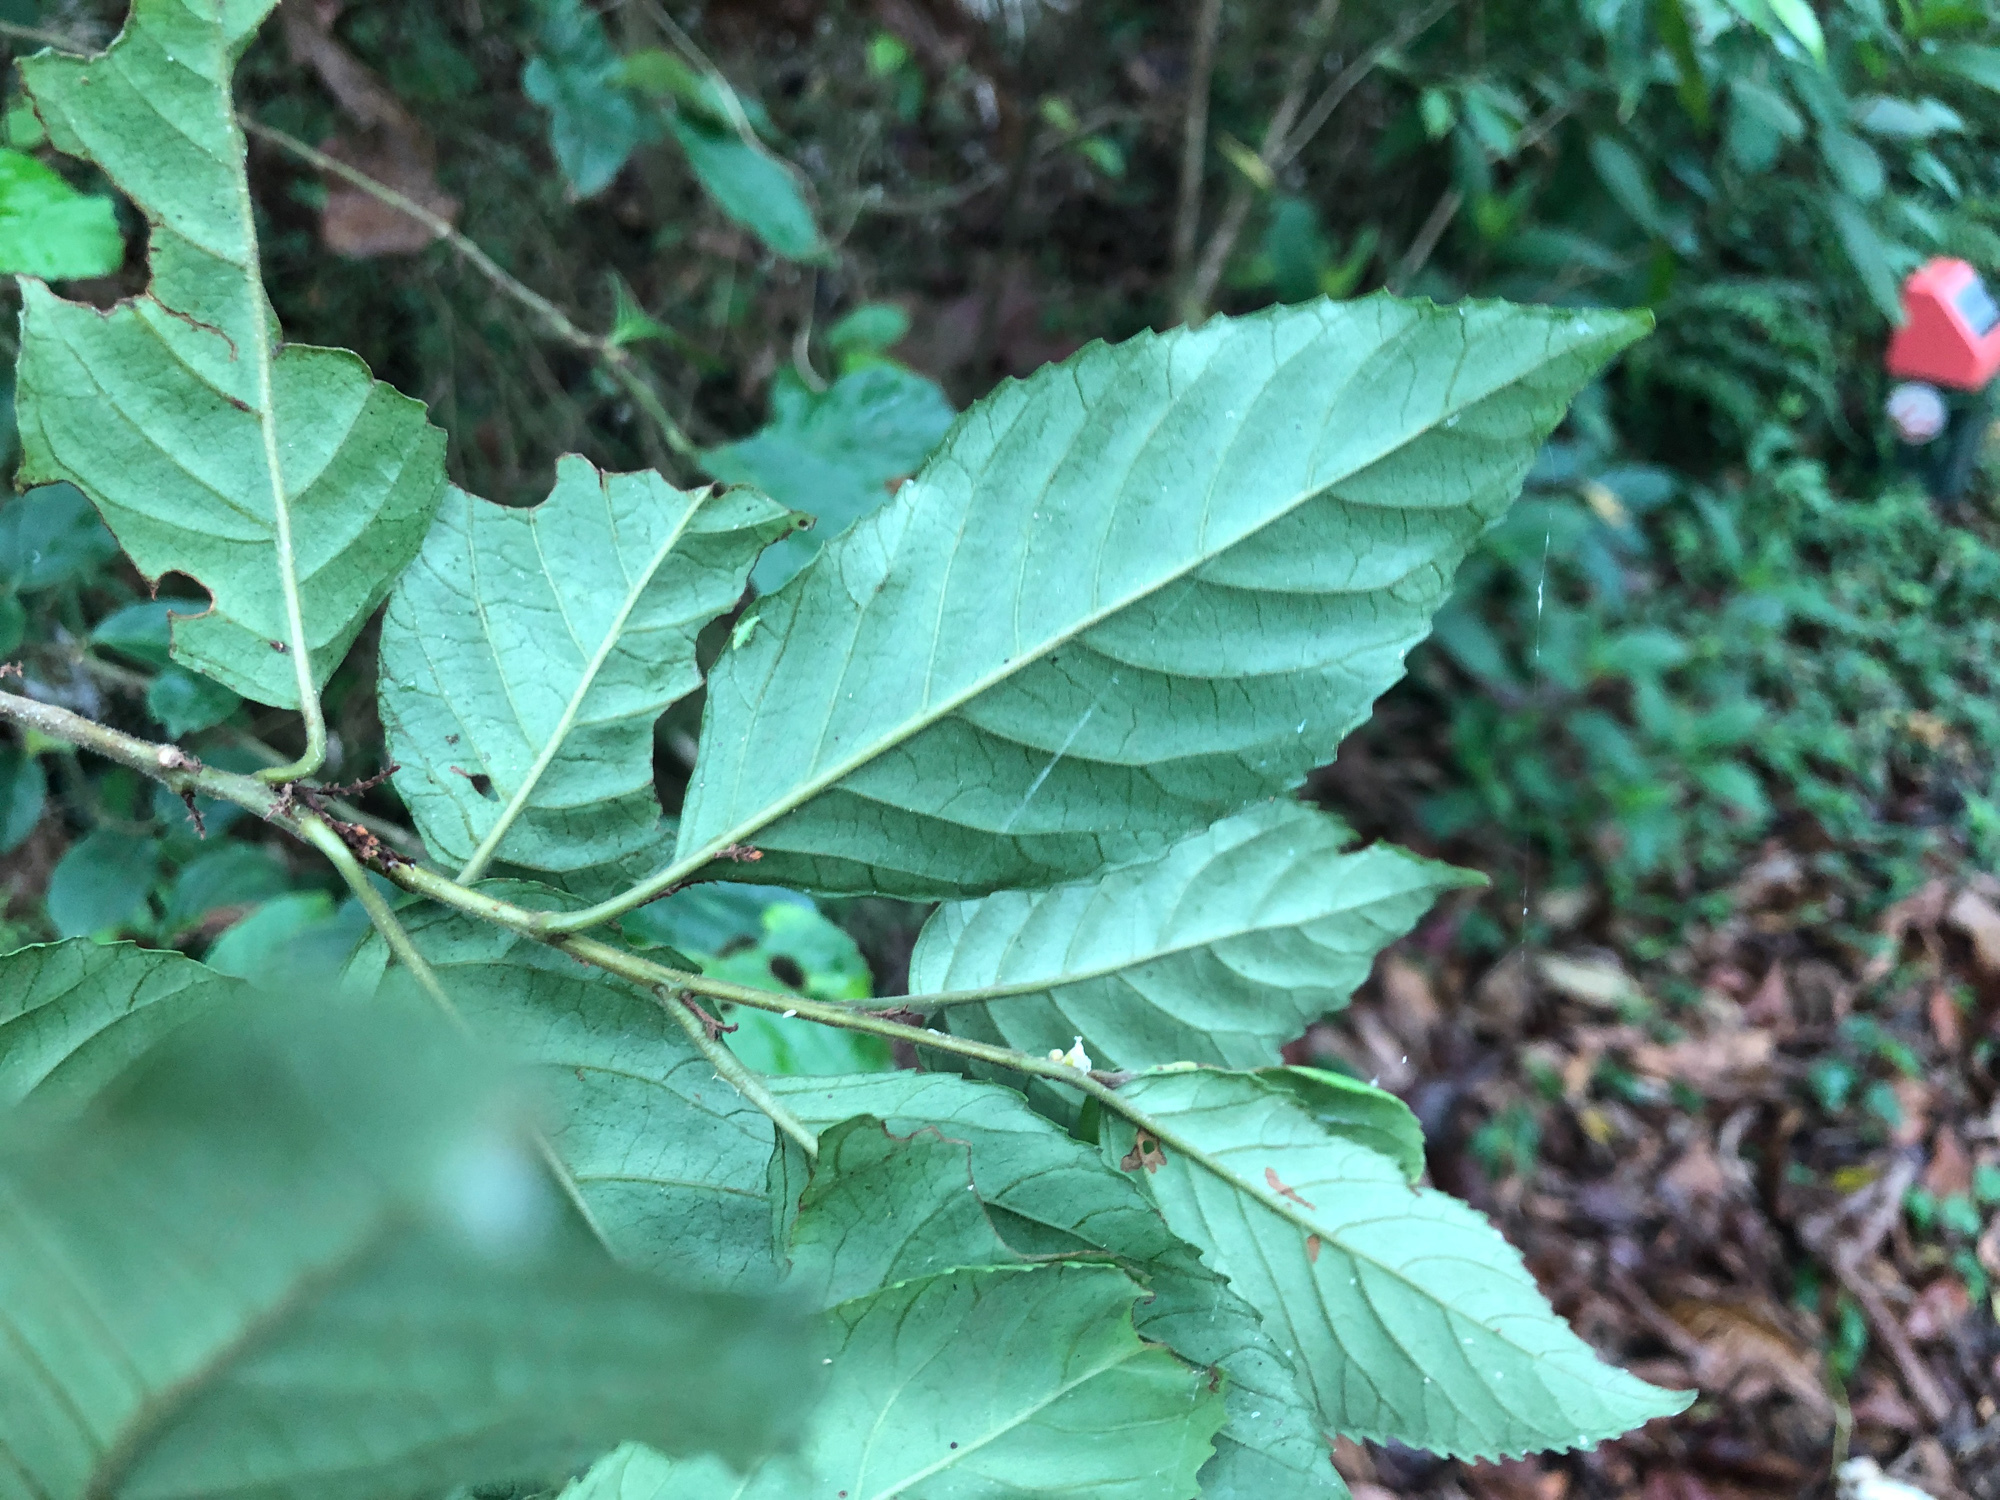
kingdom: Plantae
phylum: Tracheophyta
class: Magnoliopsida
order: Ericales
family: Primulaceae
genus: Maesa
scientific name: Maesa perlaria
